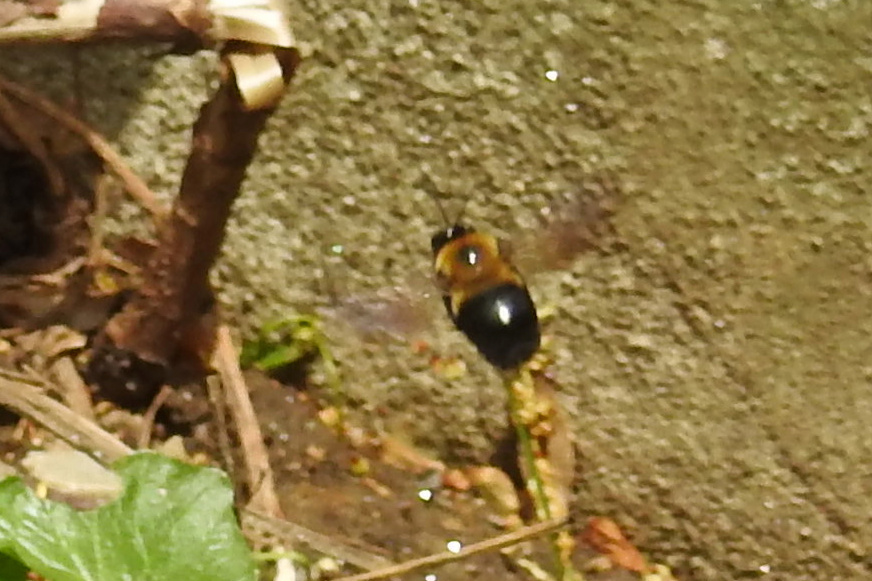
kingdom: Animalia
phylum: Arthropoda
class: Insecta
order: Hymenoptera
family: Apidae
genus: Xylocopa
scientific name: Xylocopa virginica
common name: Carpenter bee
